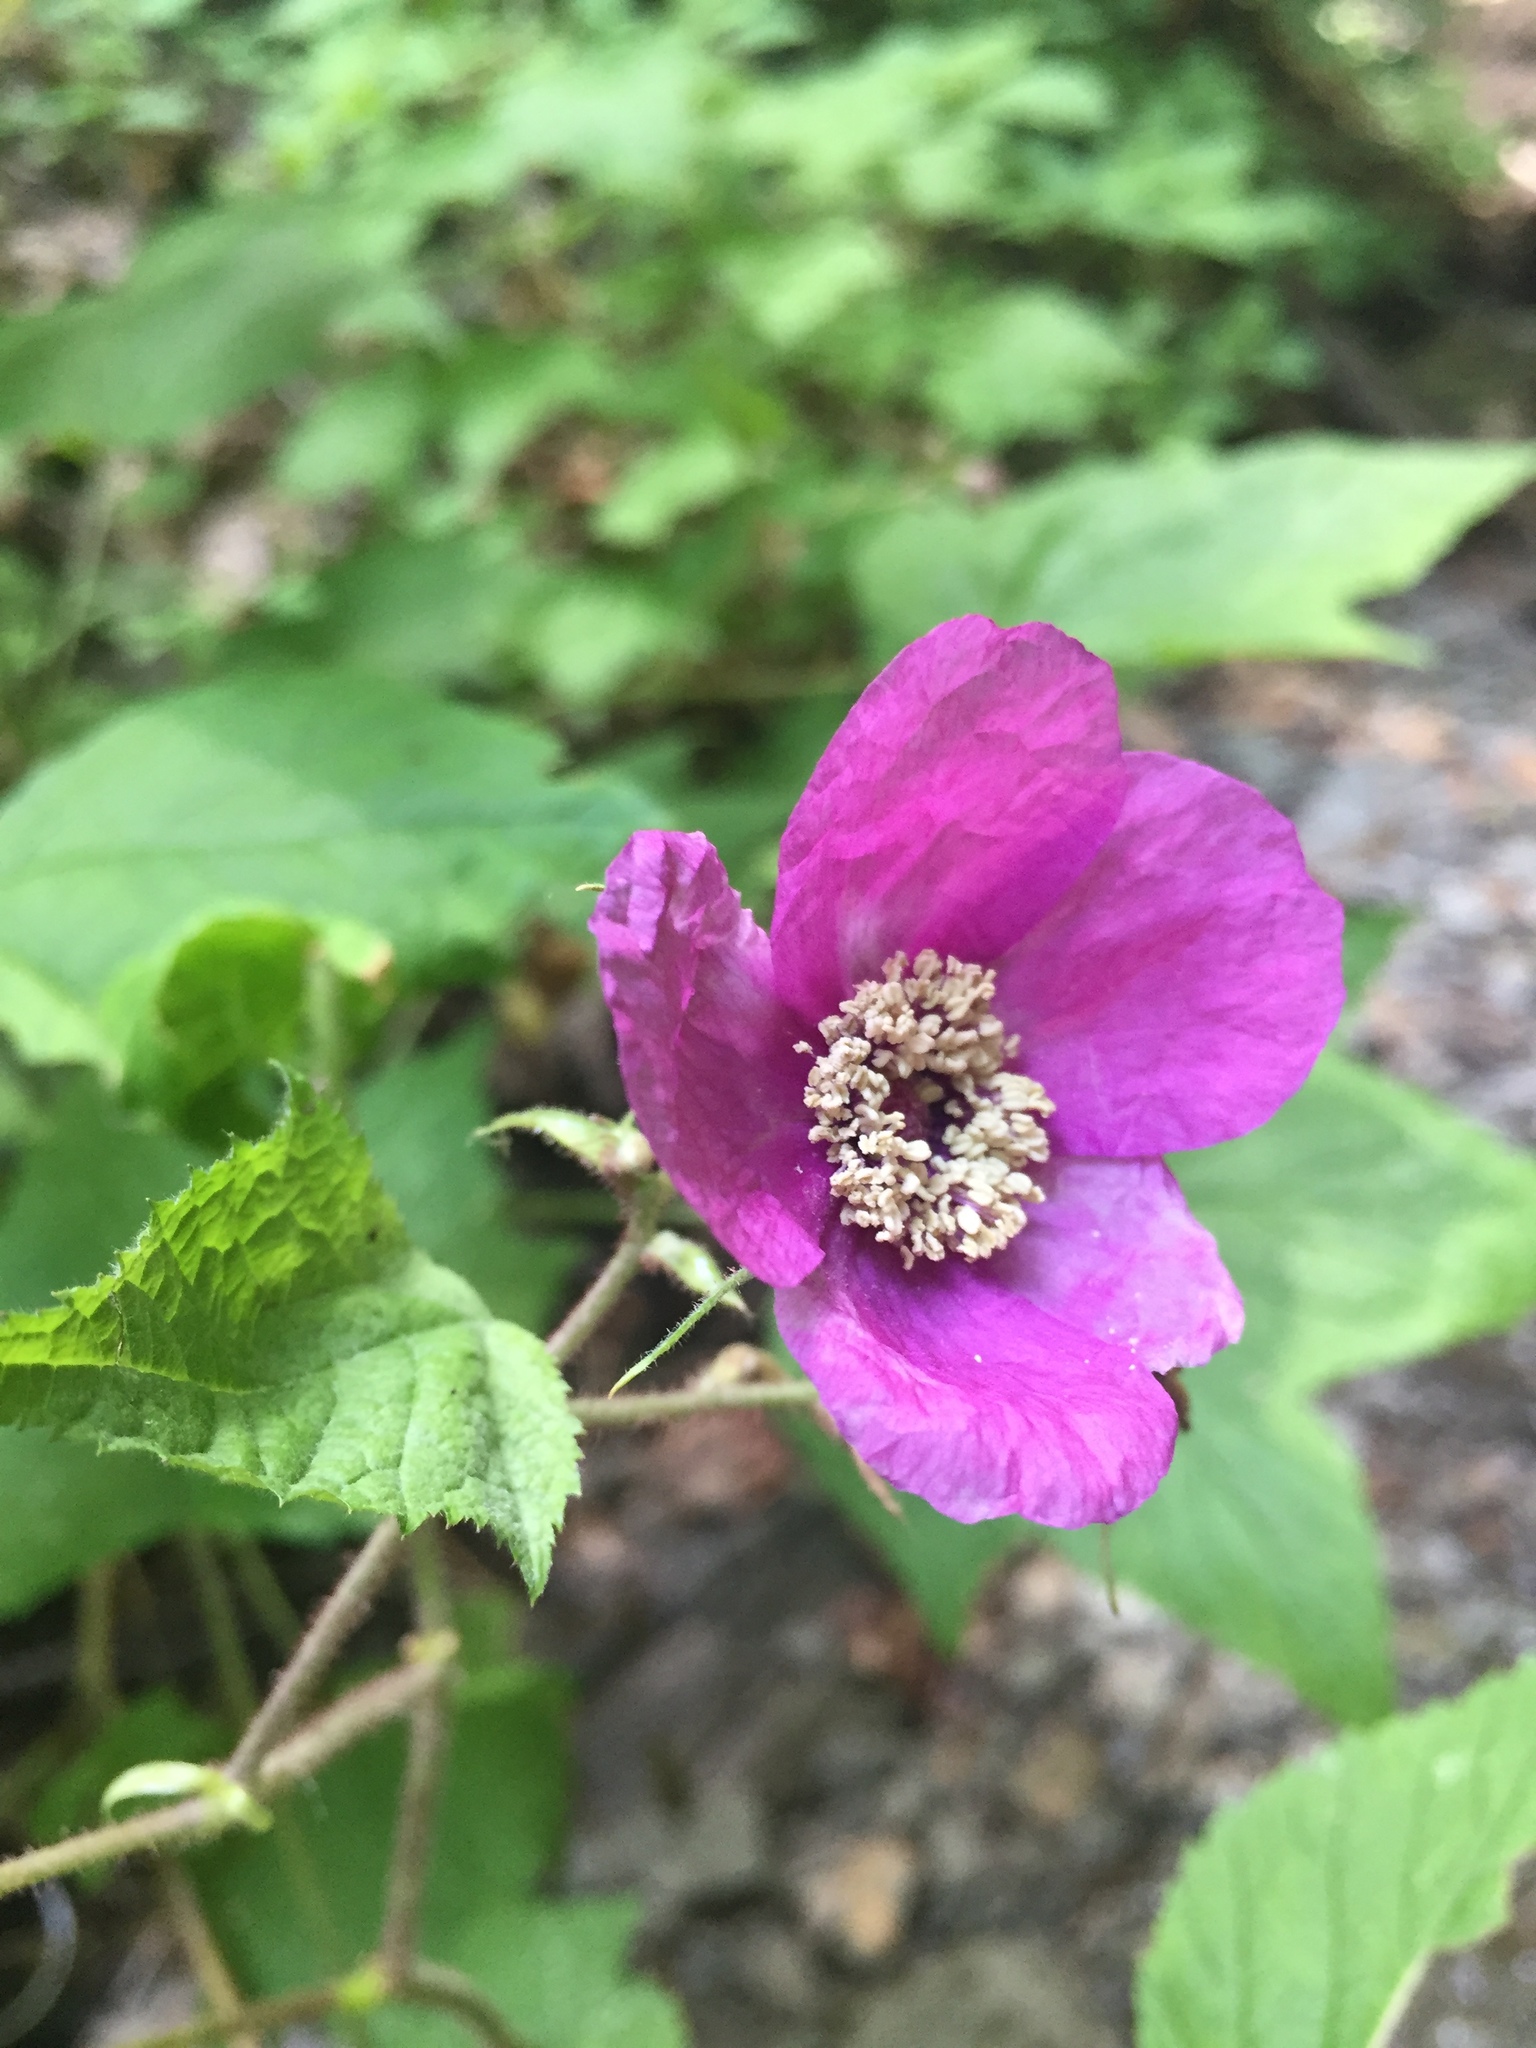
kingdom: Plantae
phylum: Tracheophyta
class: Magnoliopsida
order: Rosales
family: Rosaceae
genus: Rubus
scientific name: Rubus odoratus
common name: Purple-flowered raspberry
